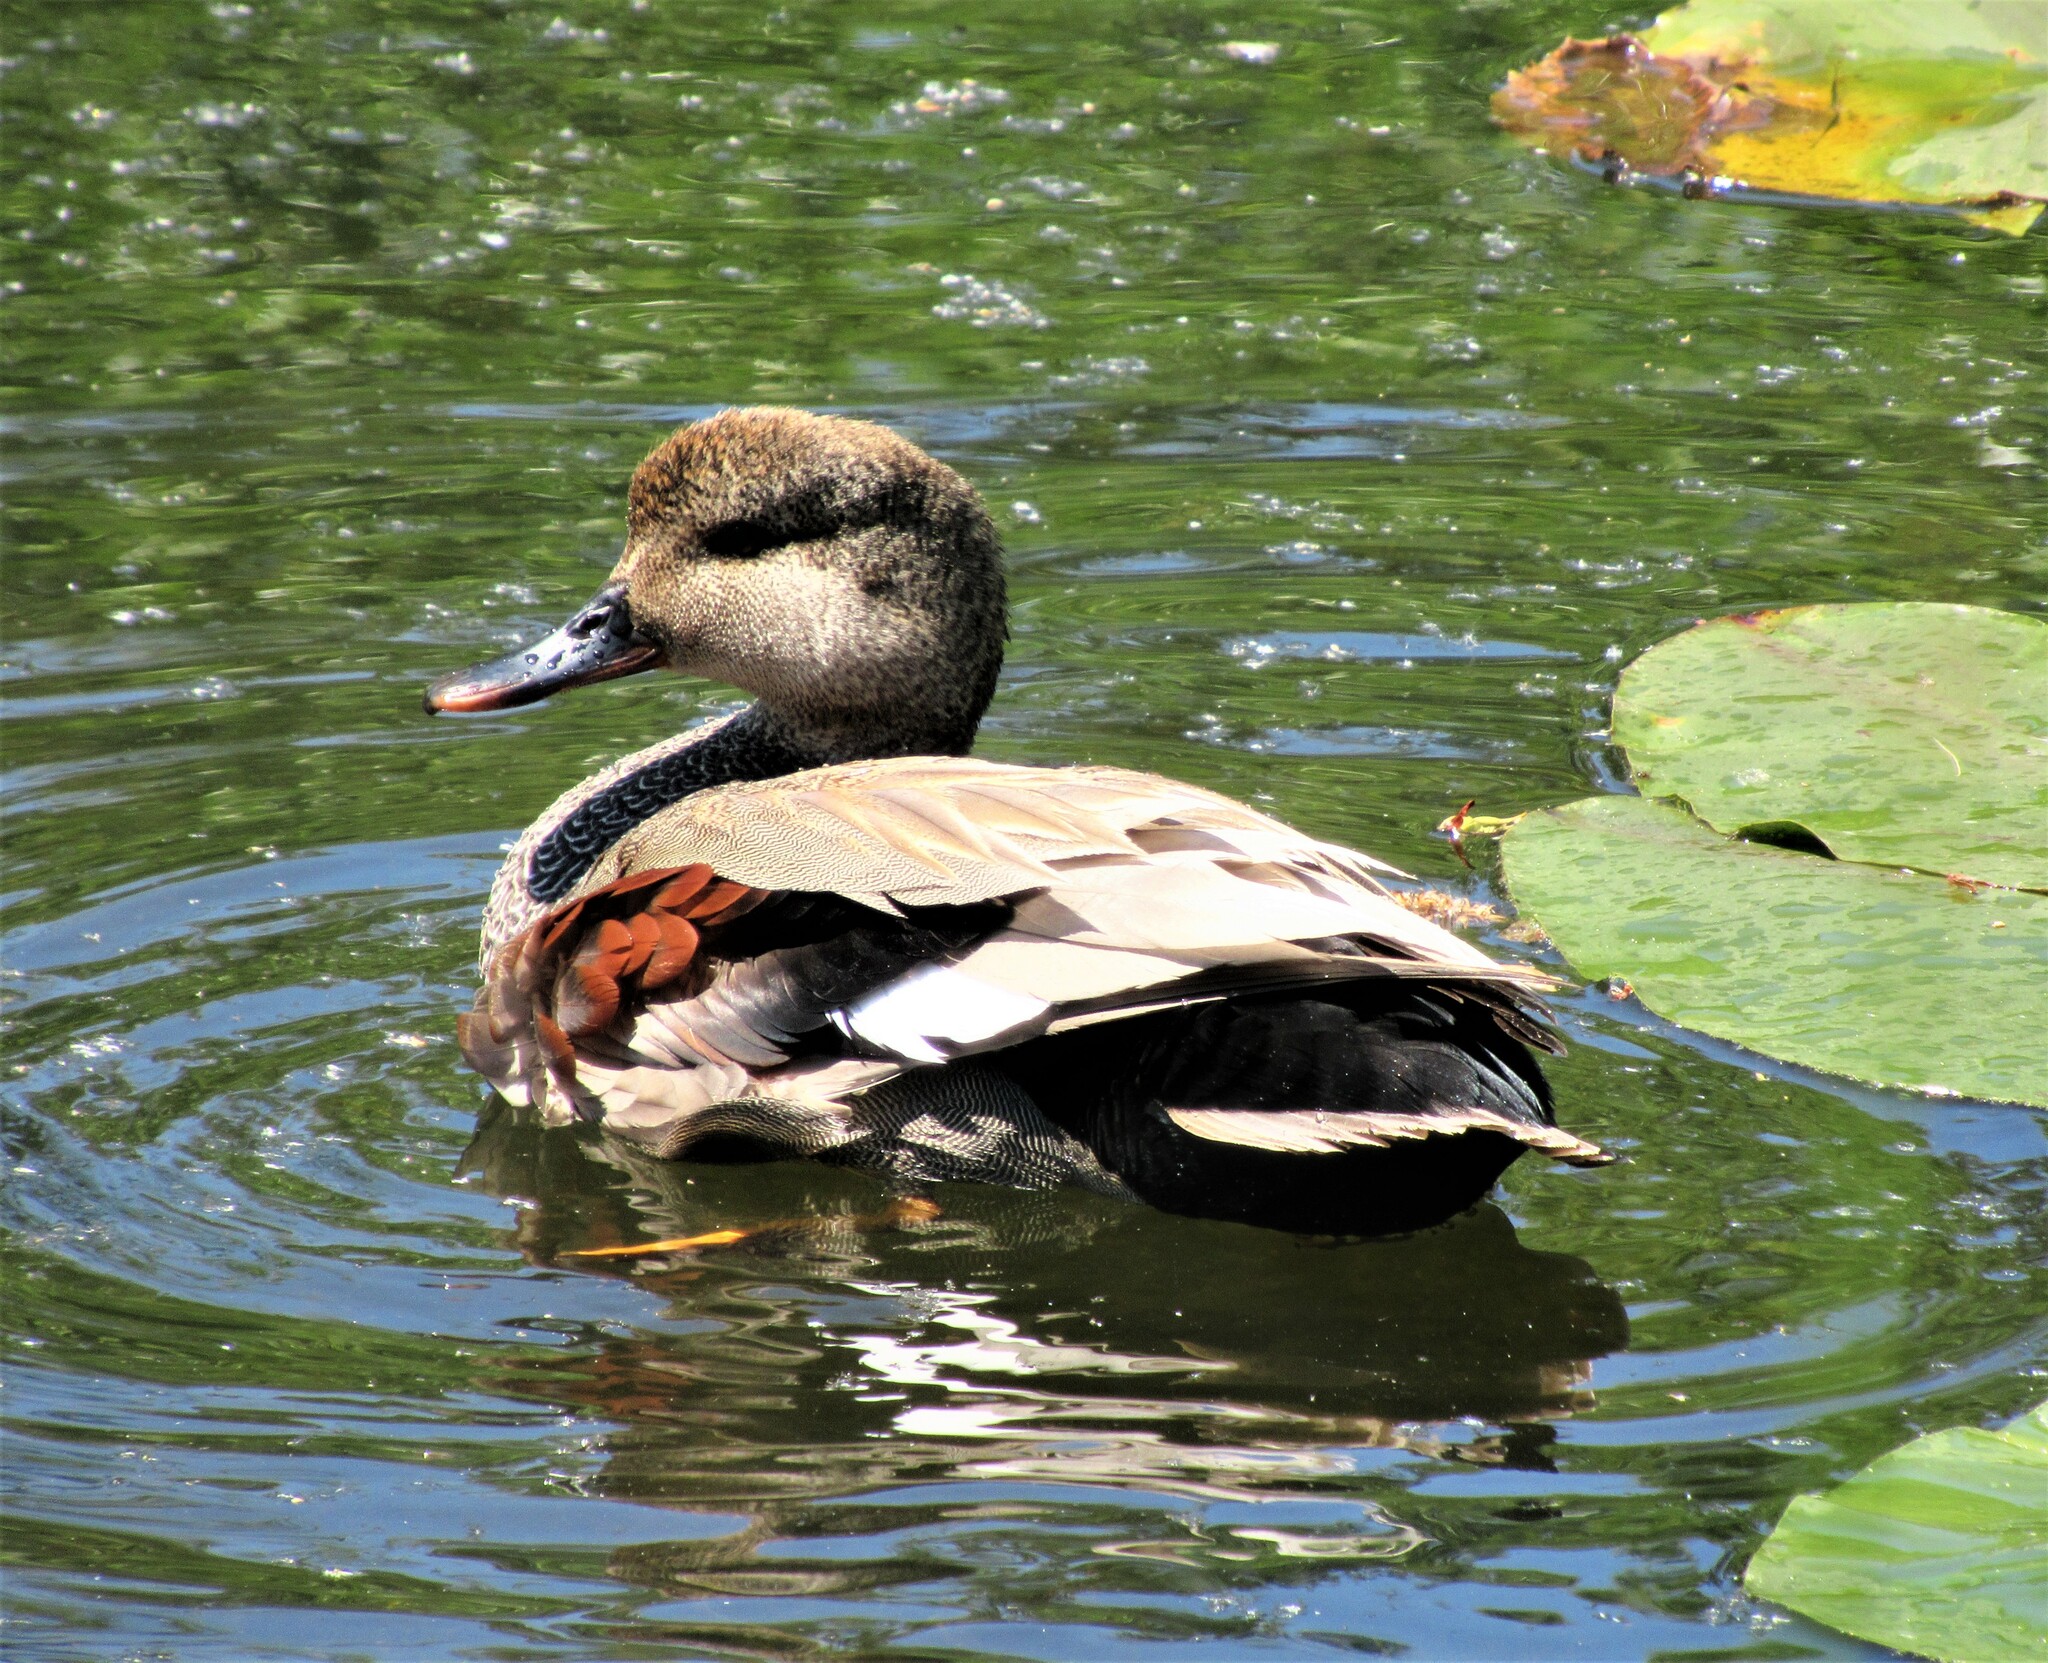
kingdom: Animalia
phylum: Chordata
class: Aves
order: Anseriformes
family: Anatidae
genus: Mareca
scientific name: Mareca strepera
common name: Gadwall
